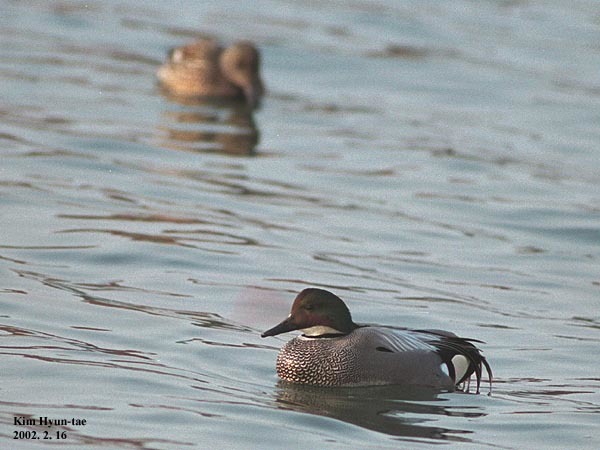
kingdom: Animalia
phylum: Chordata
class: Aves
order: Anseriformes
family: Anatidae
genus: Mareca
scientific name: Mareca falcata
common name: Falcated duck
